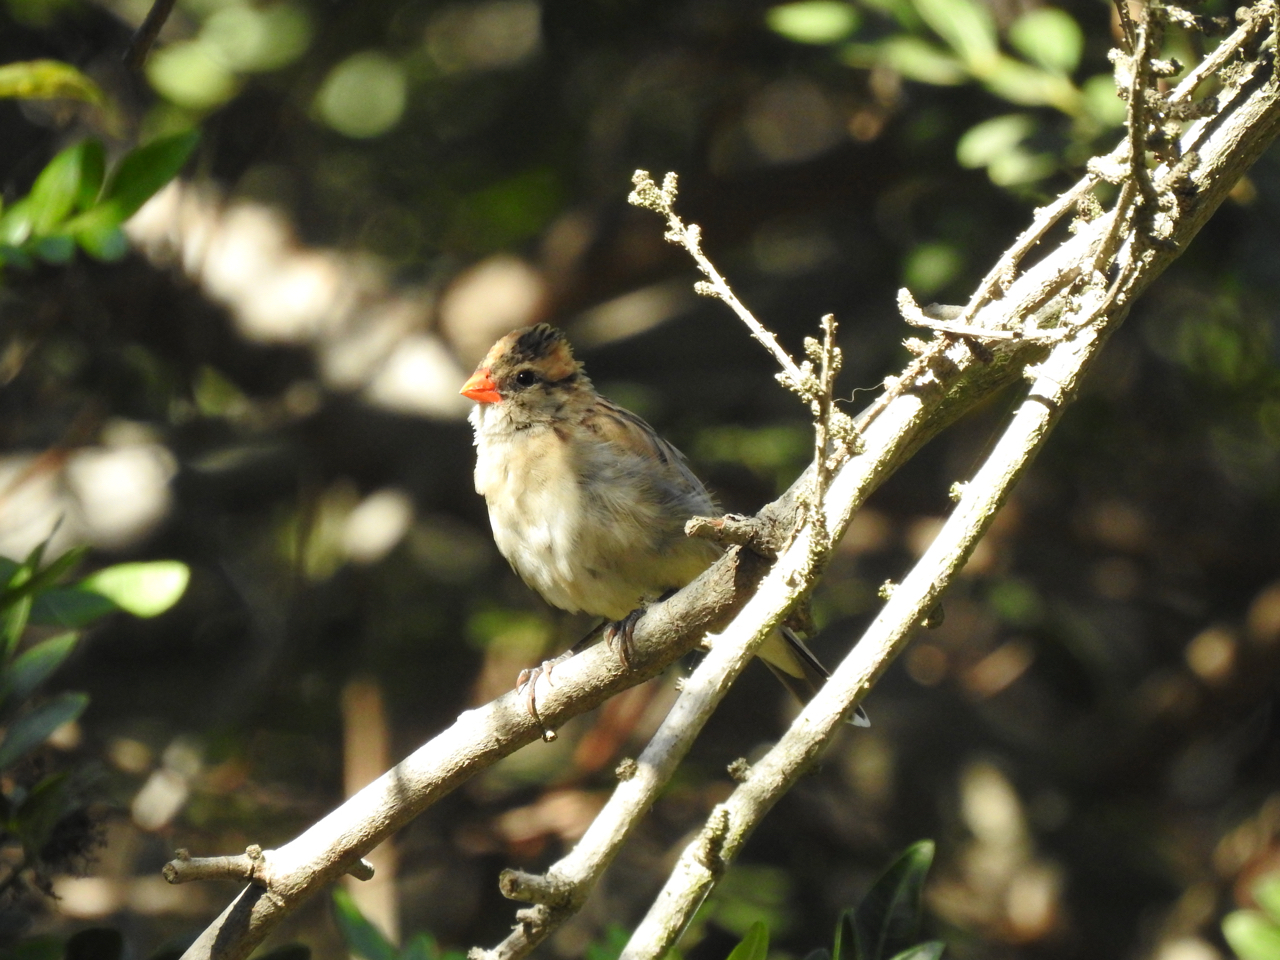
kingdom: Animalia
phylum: Chordata
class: Aves
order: Passeriformes
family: Viduidae
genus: Vidua
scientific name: Vidua macroura
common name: Pin-tailed whydah
